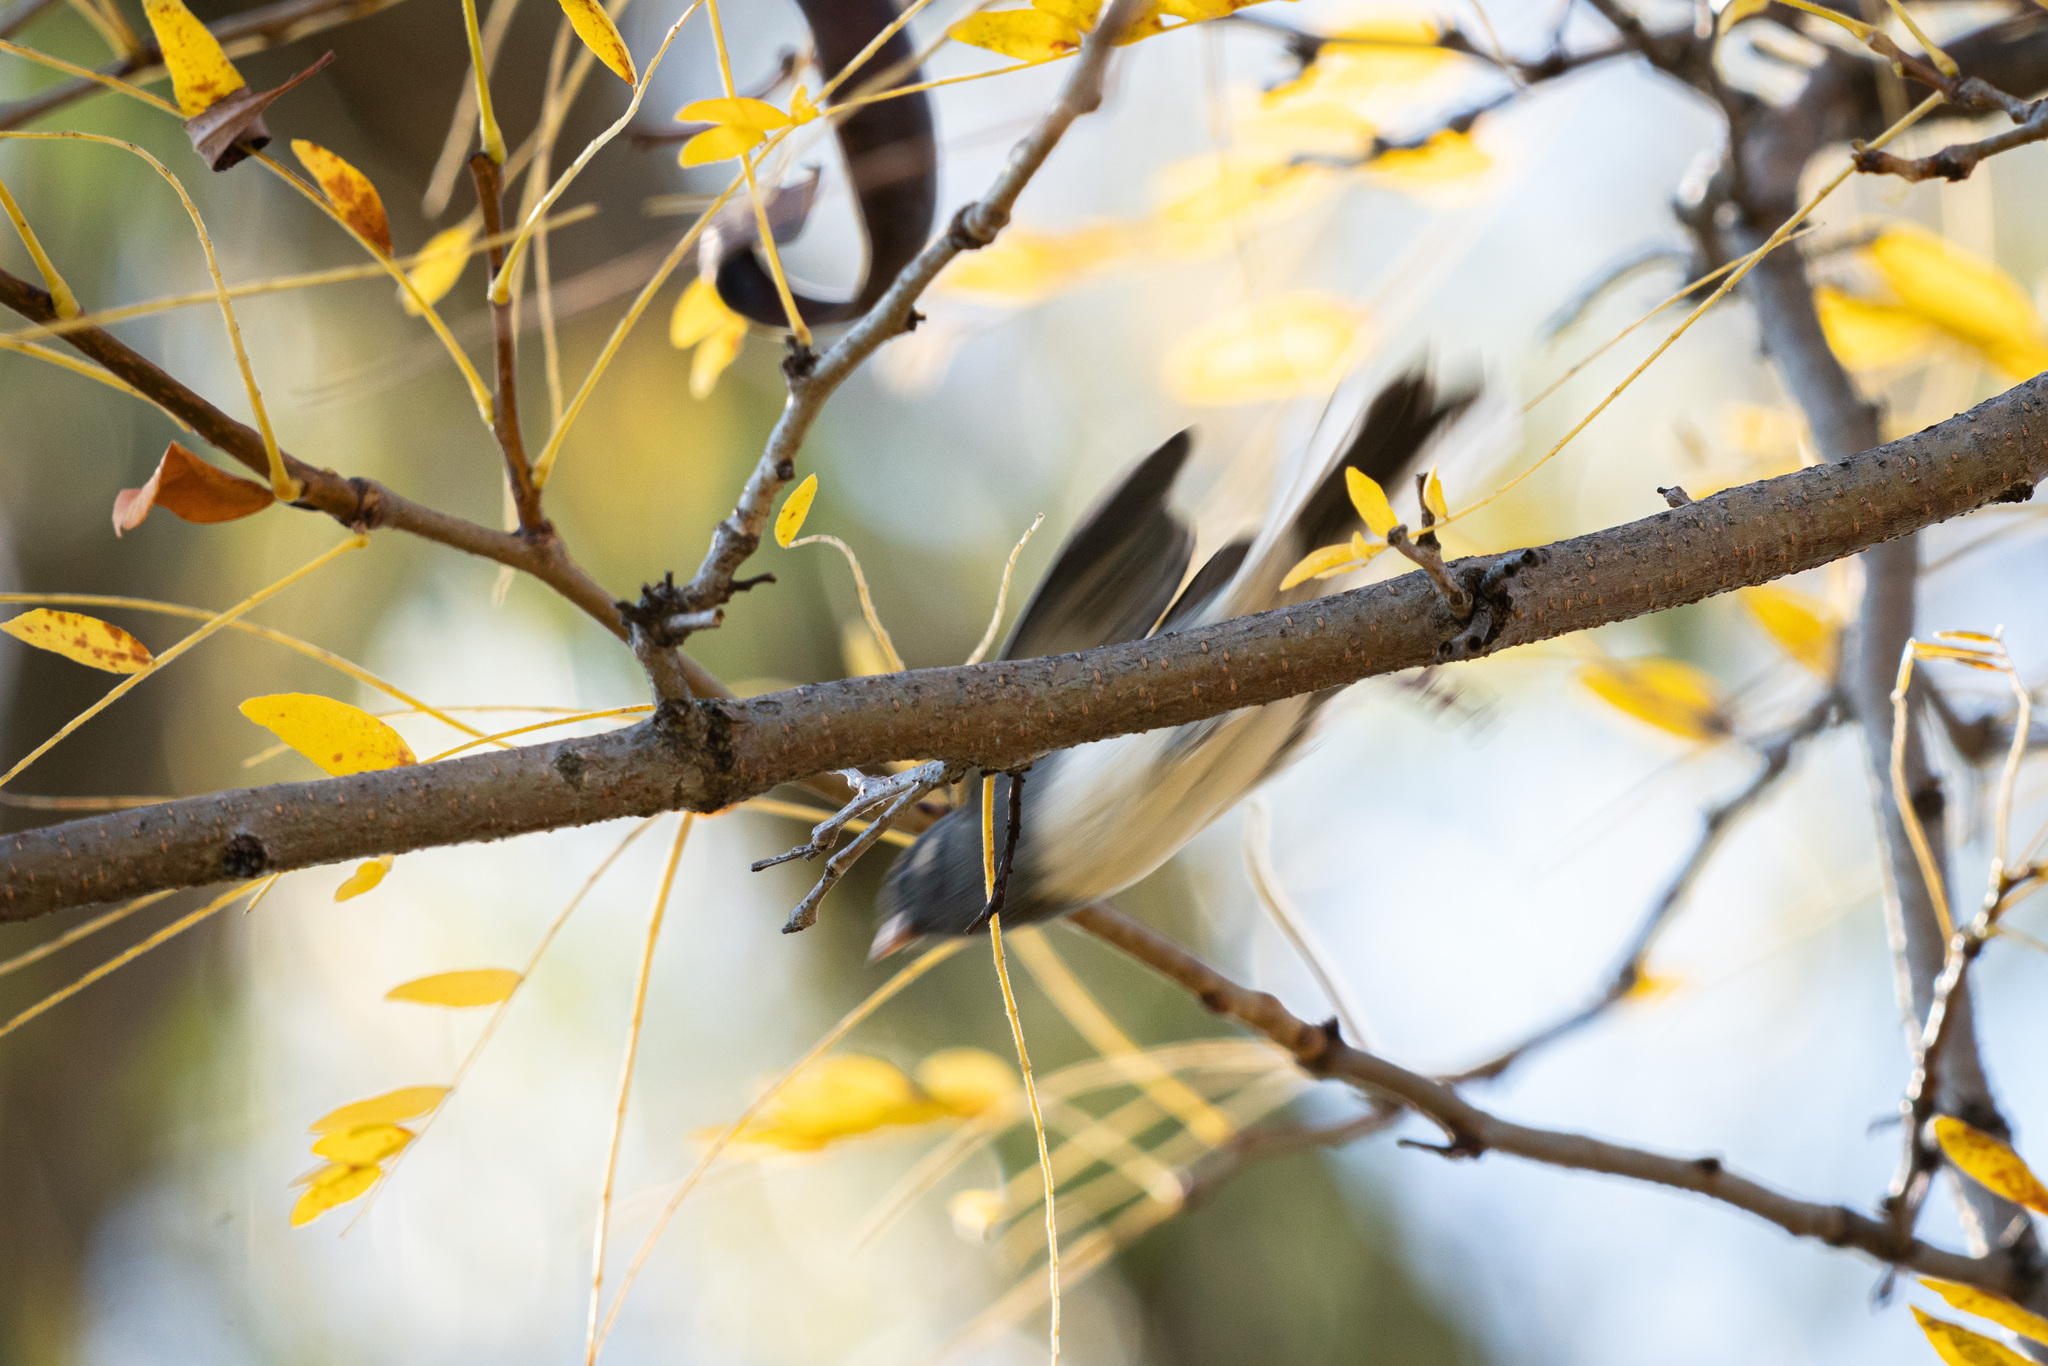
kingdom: Animalia
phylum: Chordata
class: Aves
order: Passeriformes
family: Passerellidae
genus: Junco
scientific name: Junco hyemalis
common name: Dark-eyed junco
